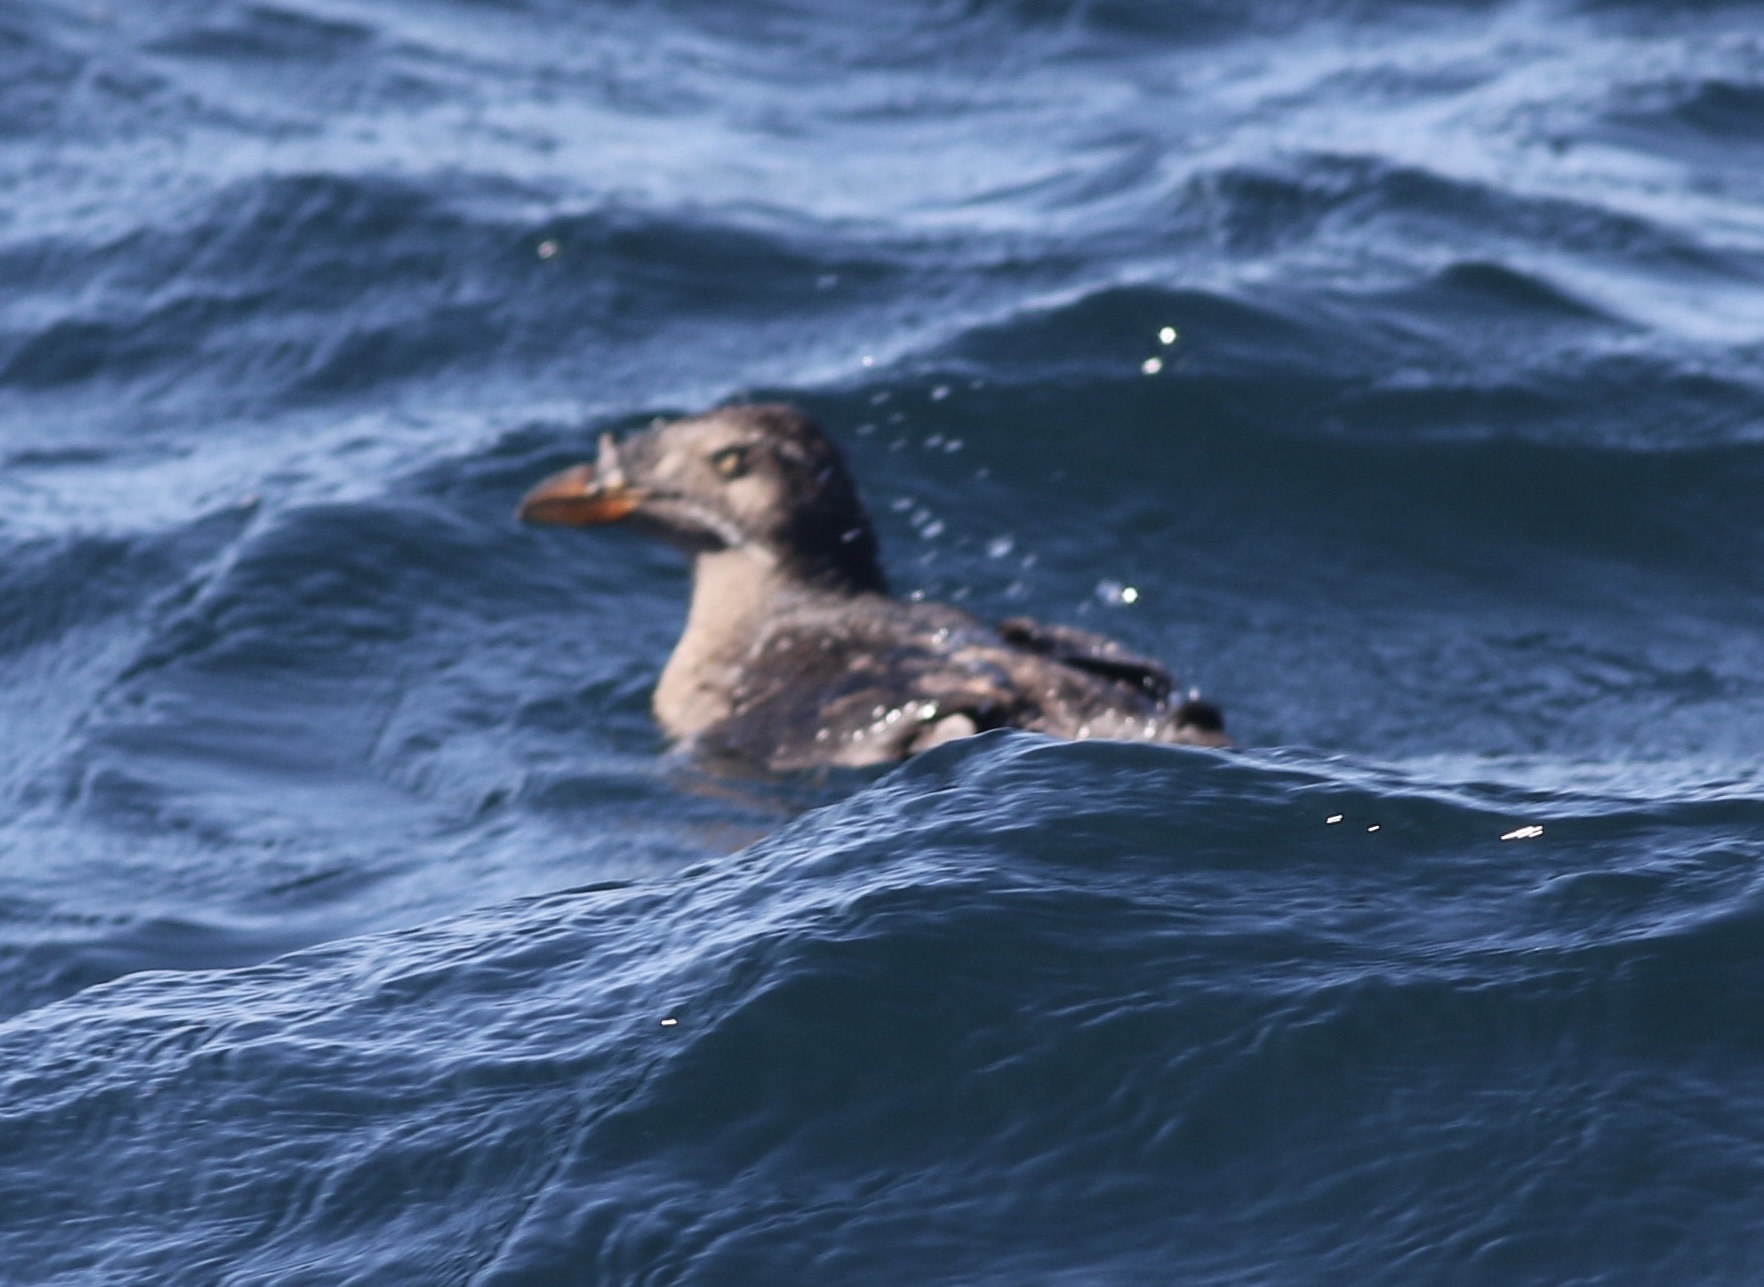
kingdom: Animalia
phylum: Chordata
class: Aves
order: Charadriiformes
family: Alcidae
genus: Cerorhinca
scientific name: Cerorhinca monocerata
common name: Rhinoceros auklet
